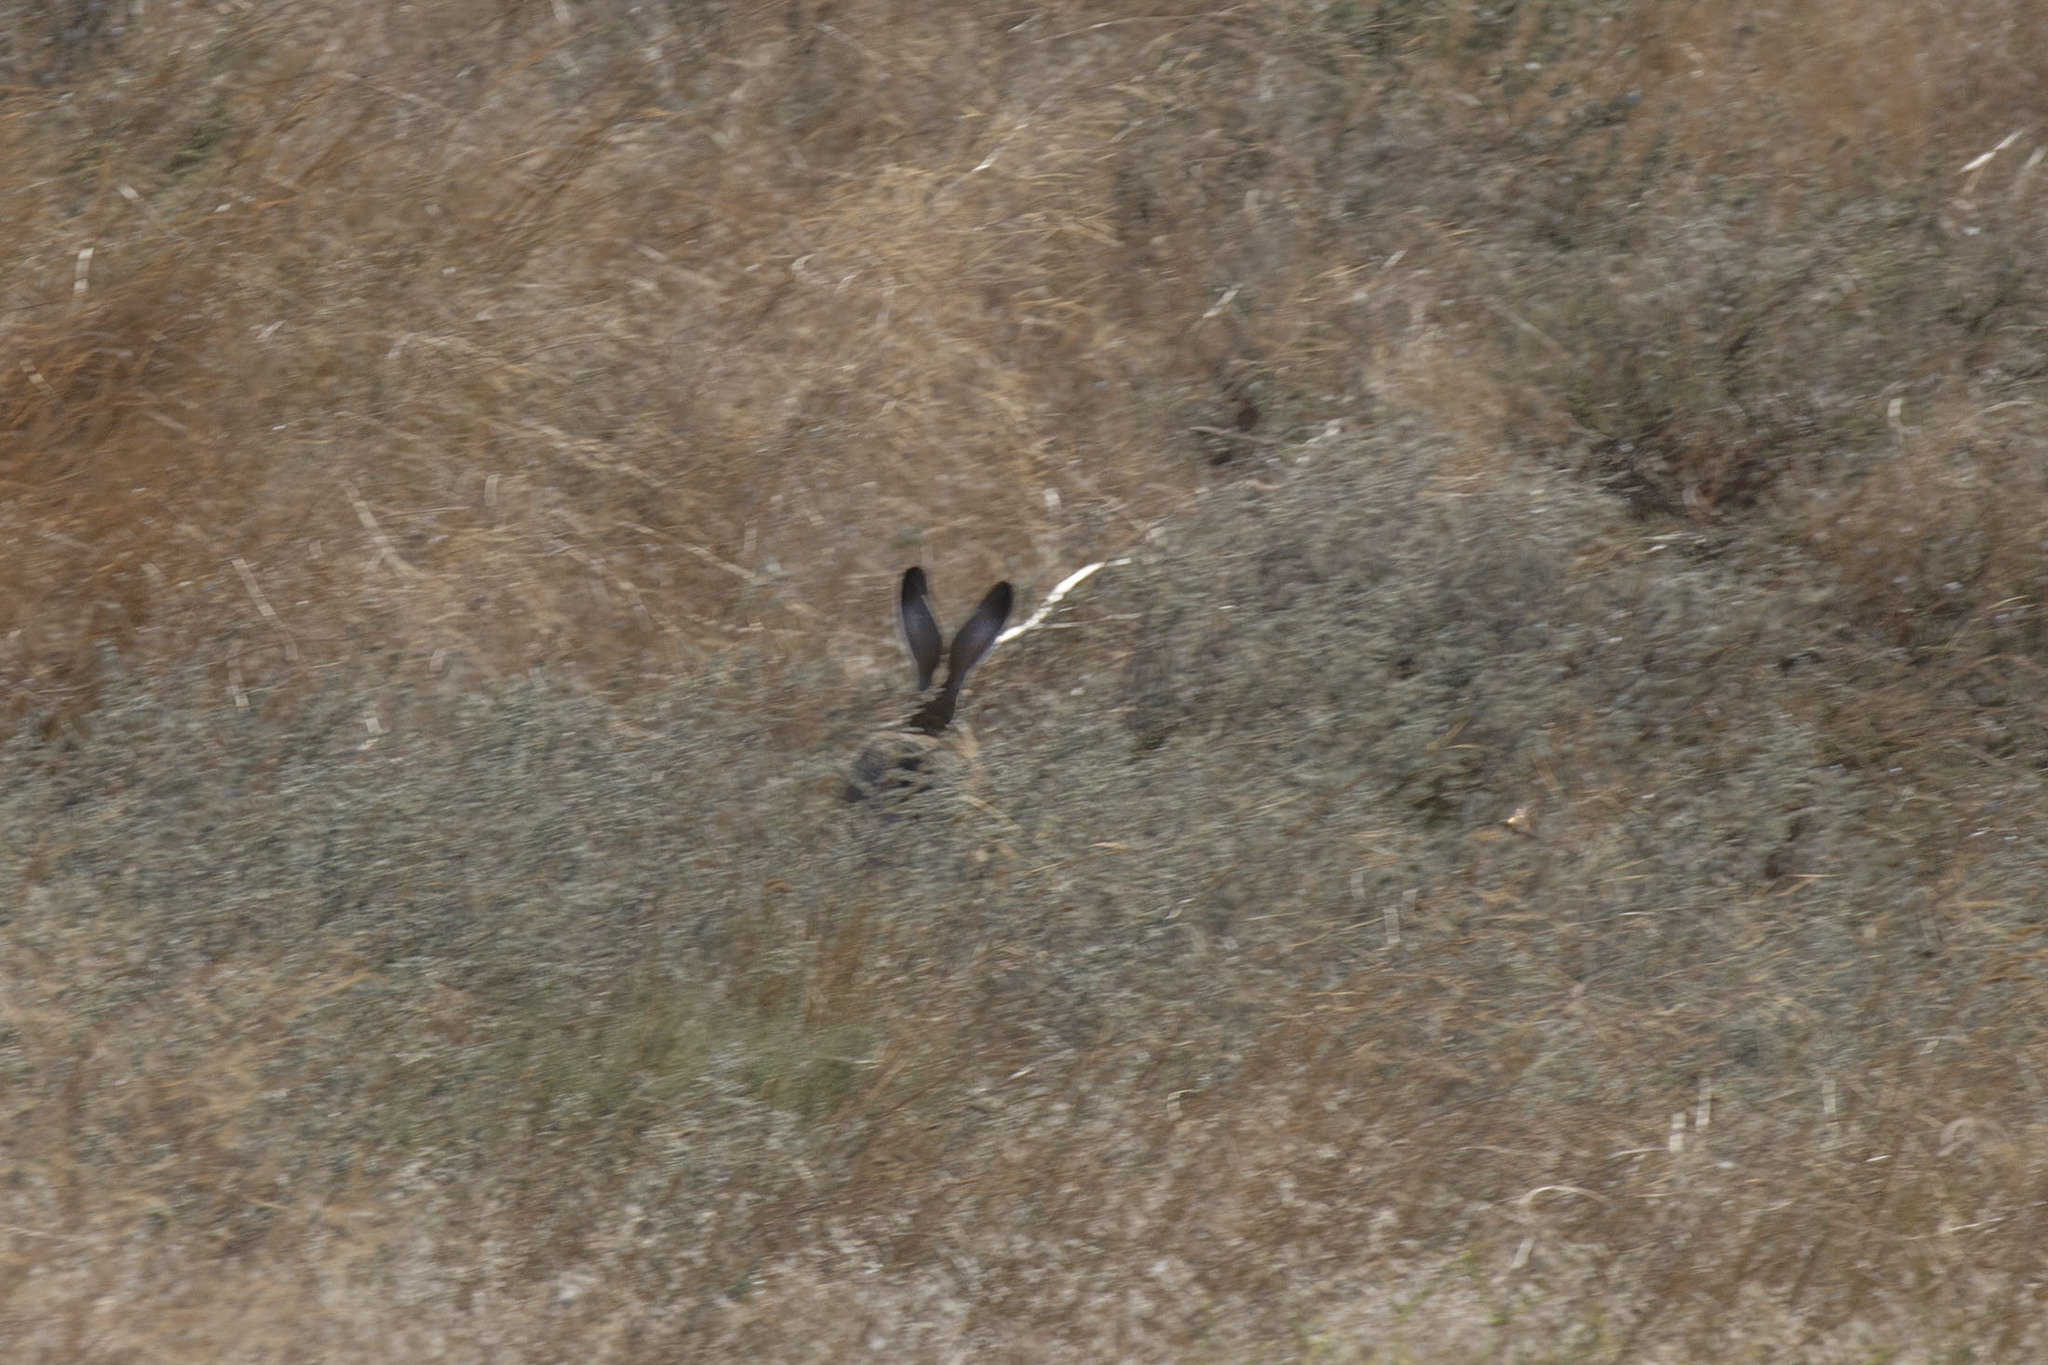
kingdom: Animalia
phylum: Chordata
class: Mammalia
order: Lagomorpha
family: Leporidae
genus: Lepus
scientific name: Lepus europaeus
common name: European hare
